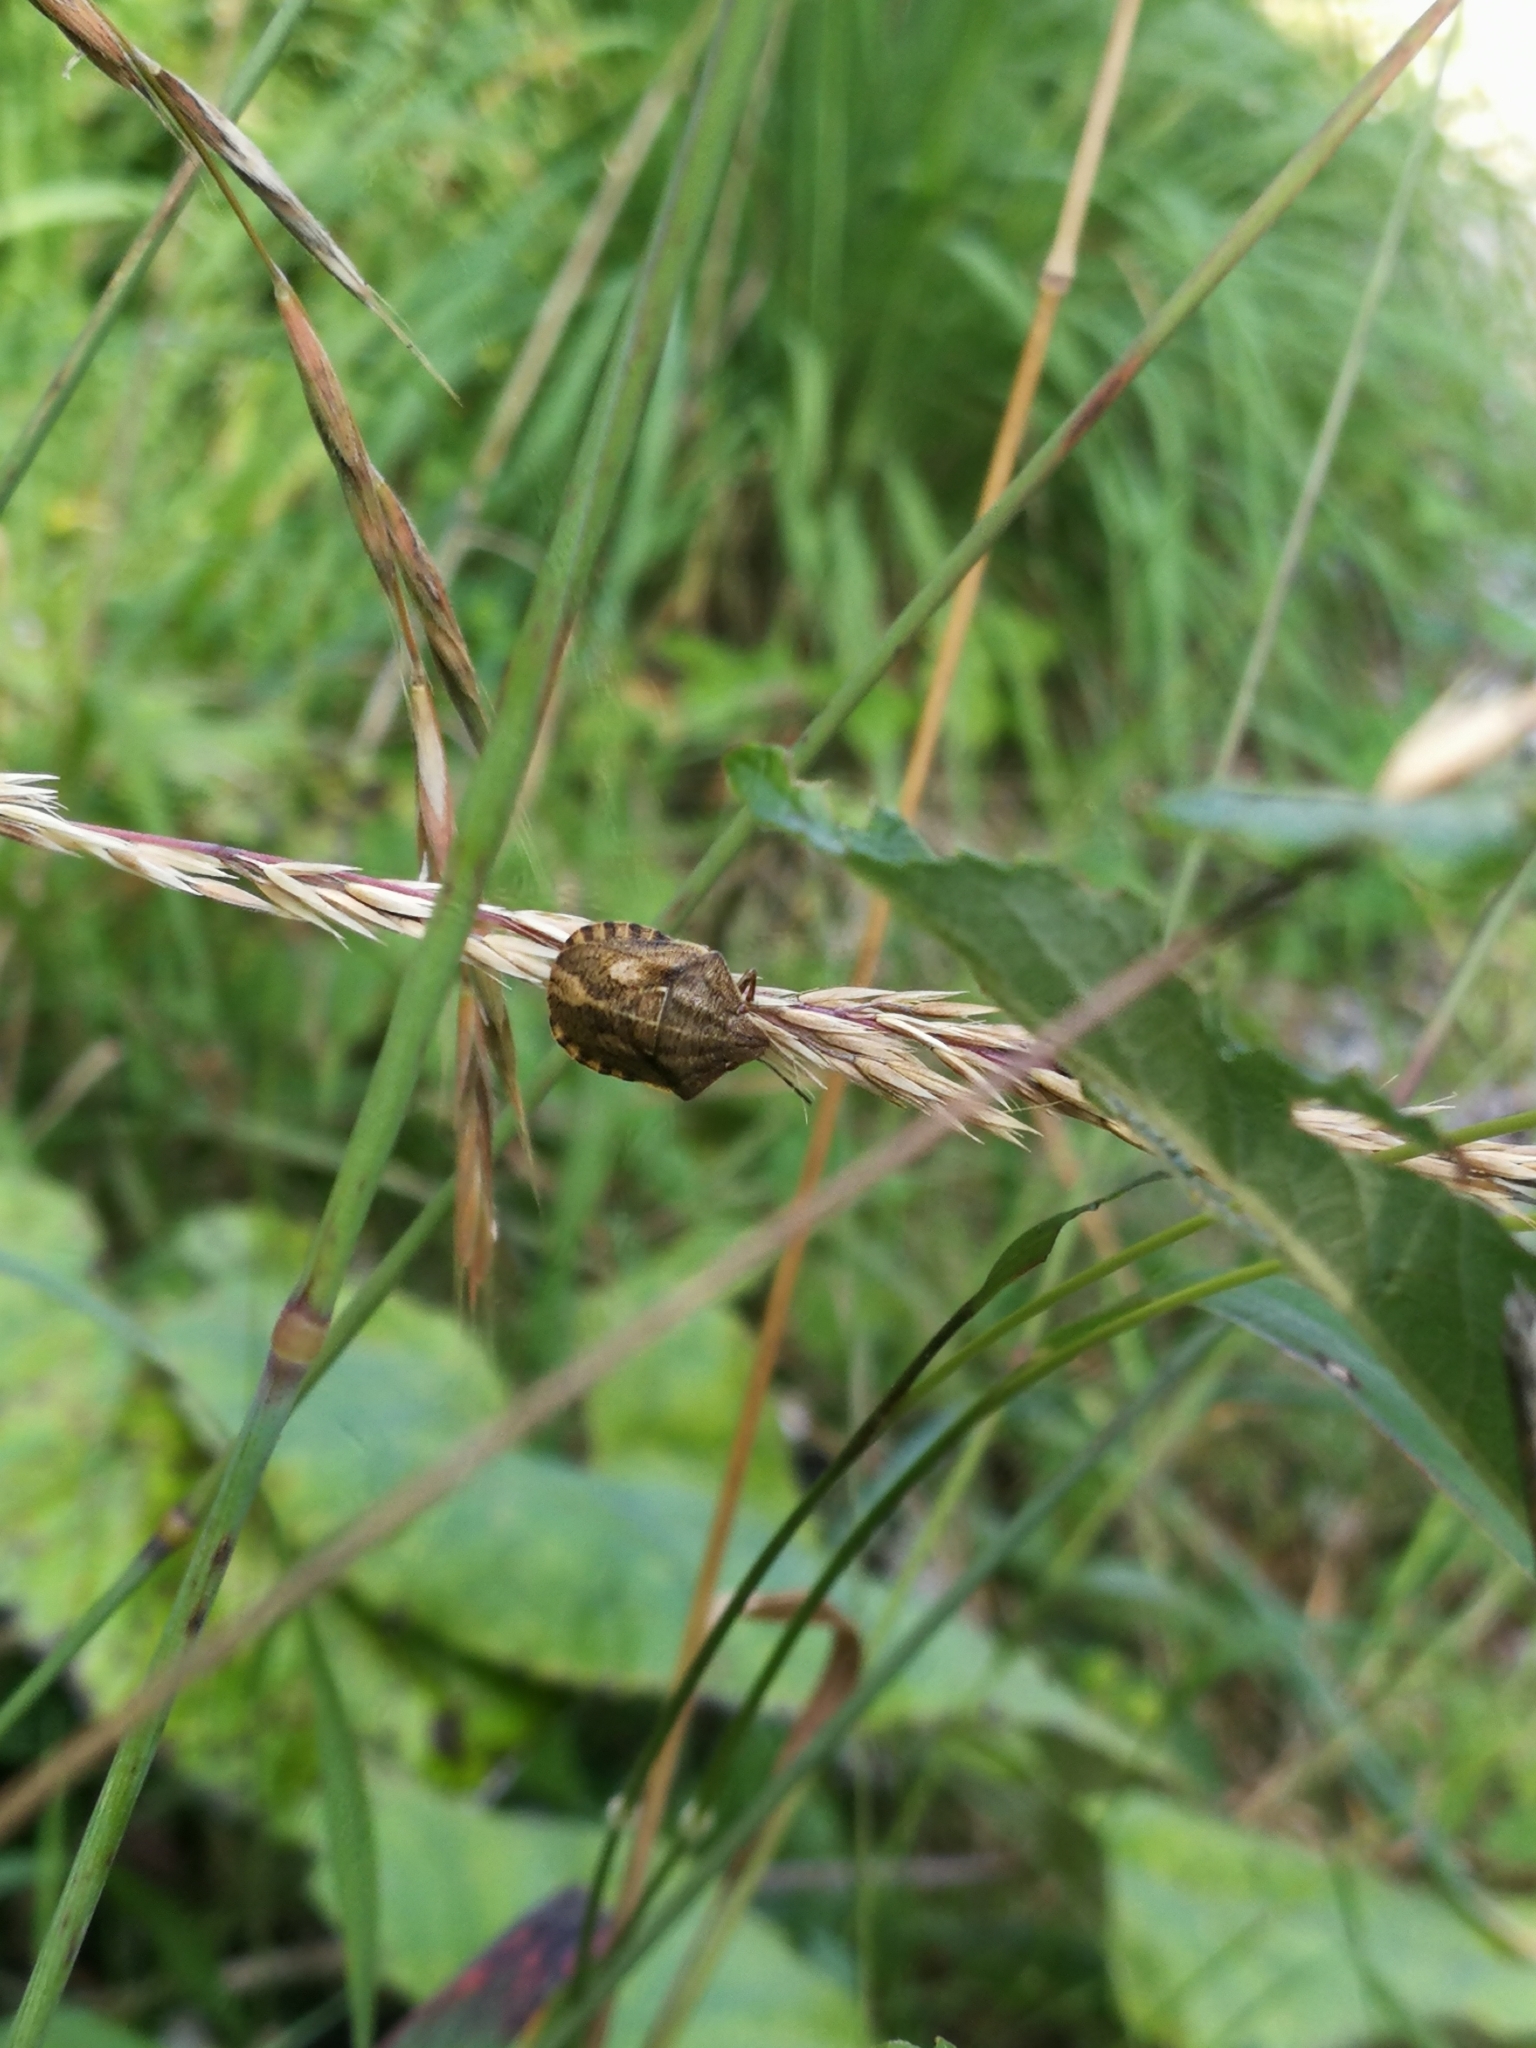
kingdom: Animalia
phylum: Arthropoda
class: Insecta
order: Hemiptera
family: Scutelleridae
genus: Eurygaster
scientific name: Eurygaster testudinaria
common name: Tortoise bug
